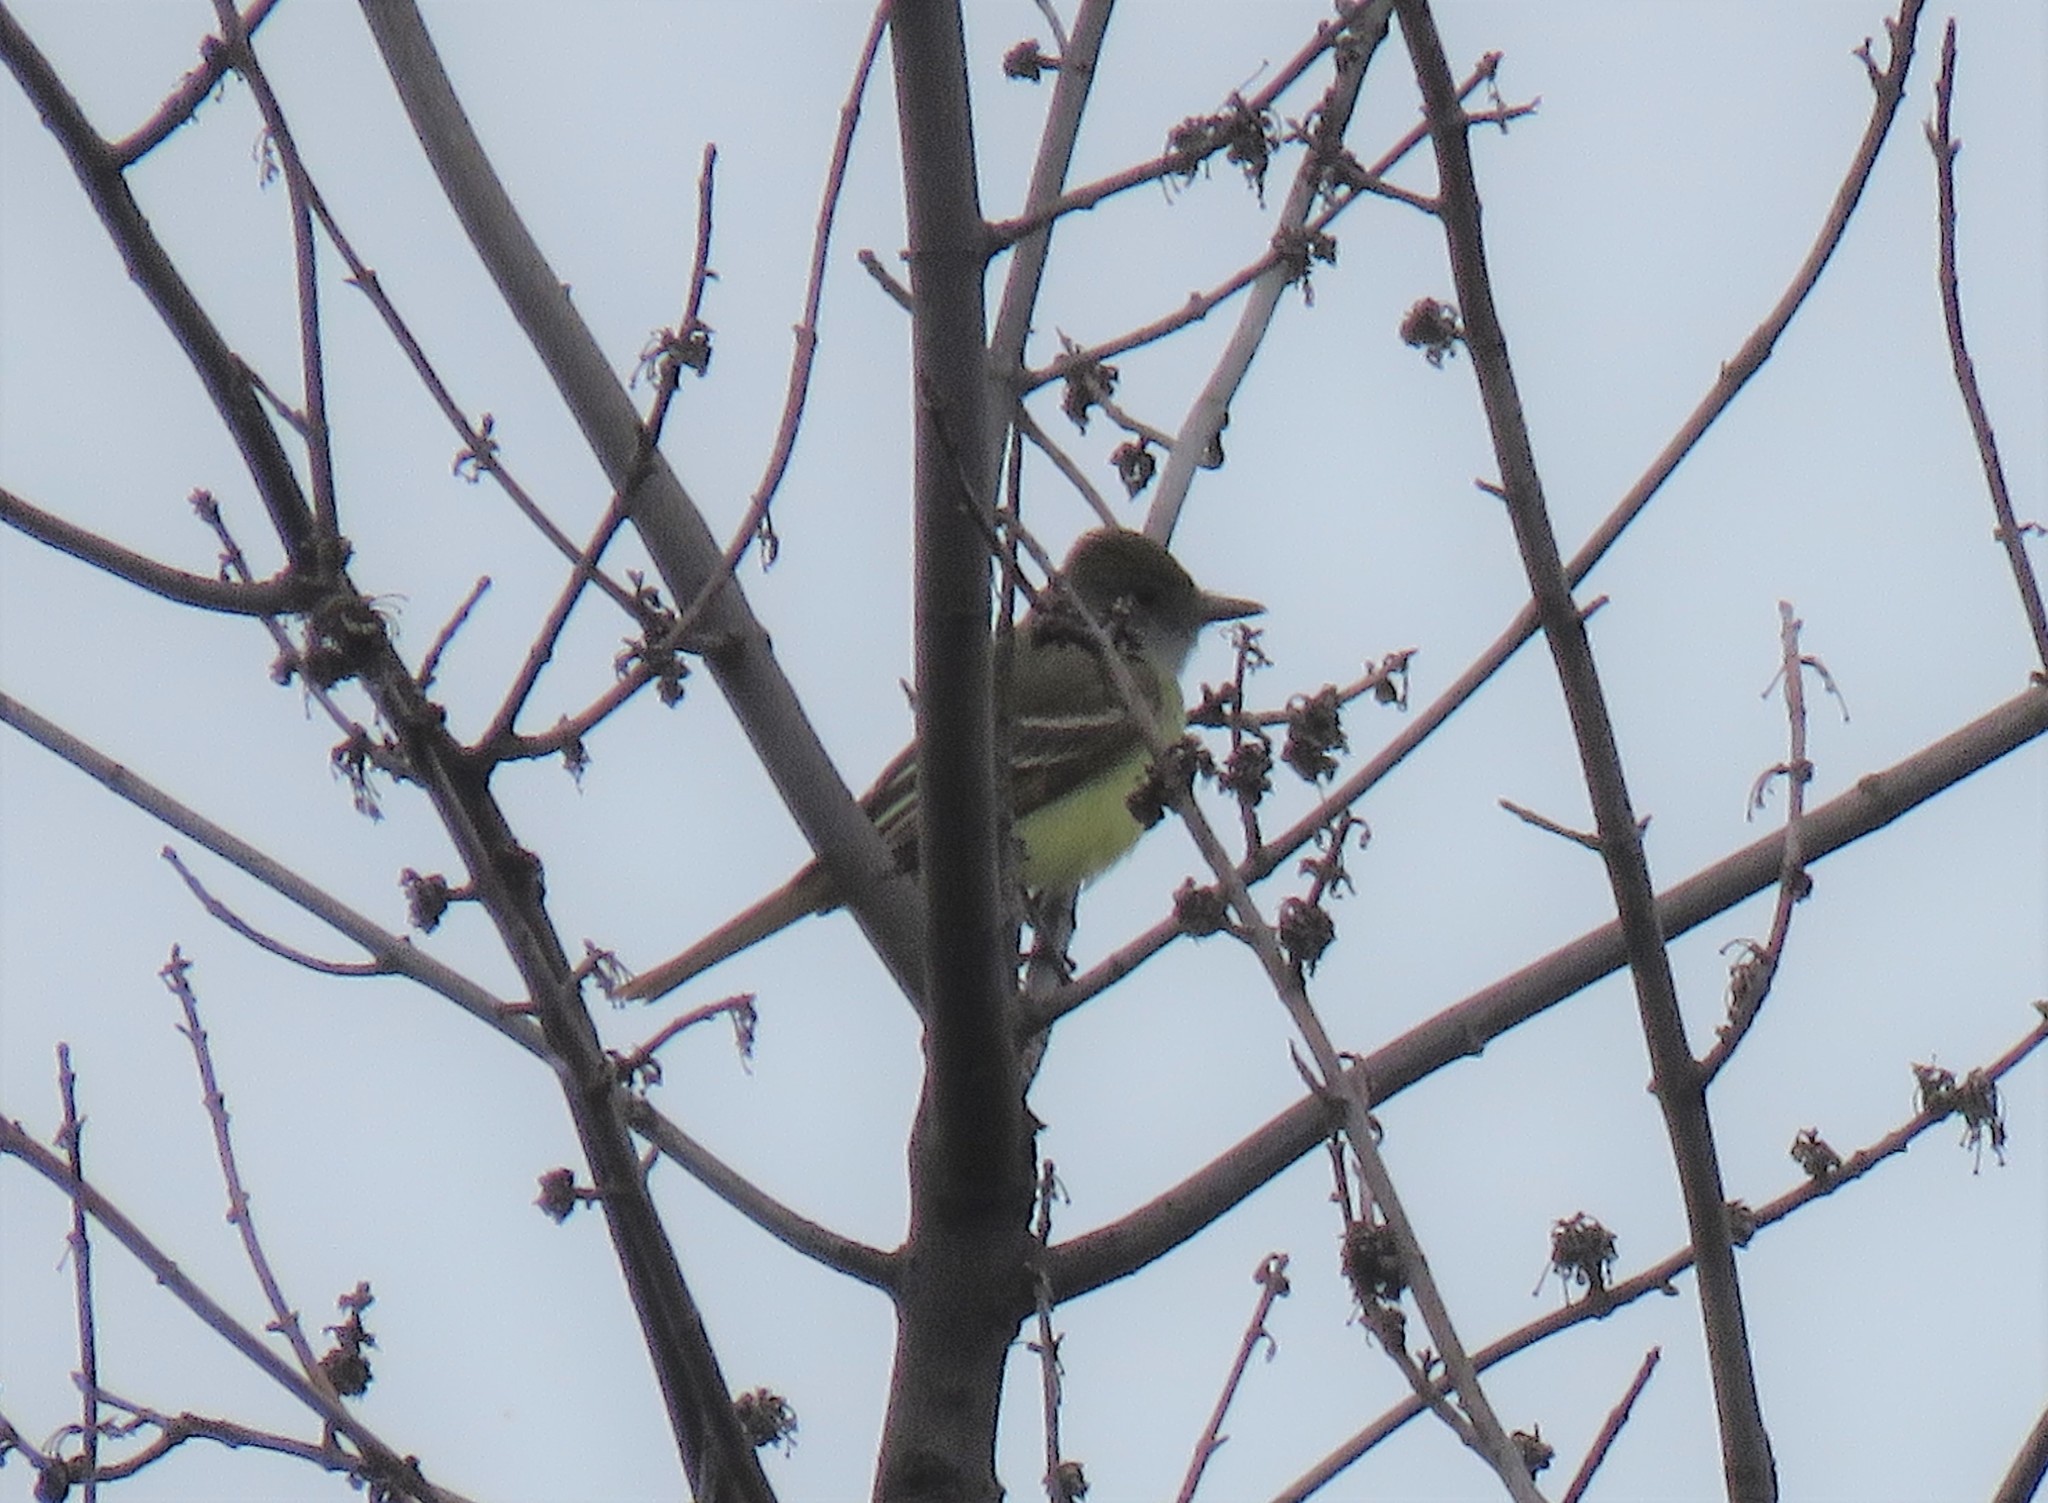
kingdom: Animalia
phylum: Chordata
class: Aves
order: Passeriformes
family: Tyrannidae
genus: Myiarchus
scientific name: Myiarchus crinitus
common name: Great crested flycatcher
